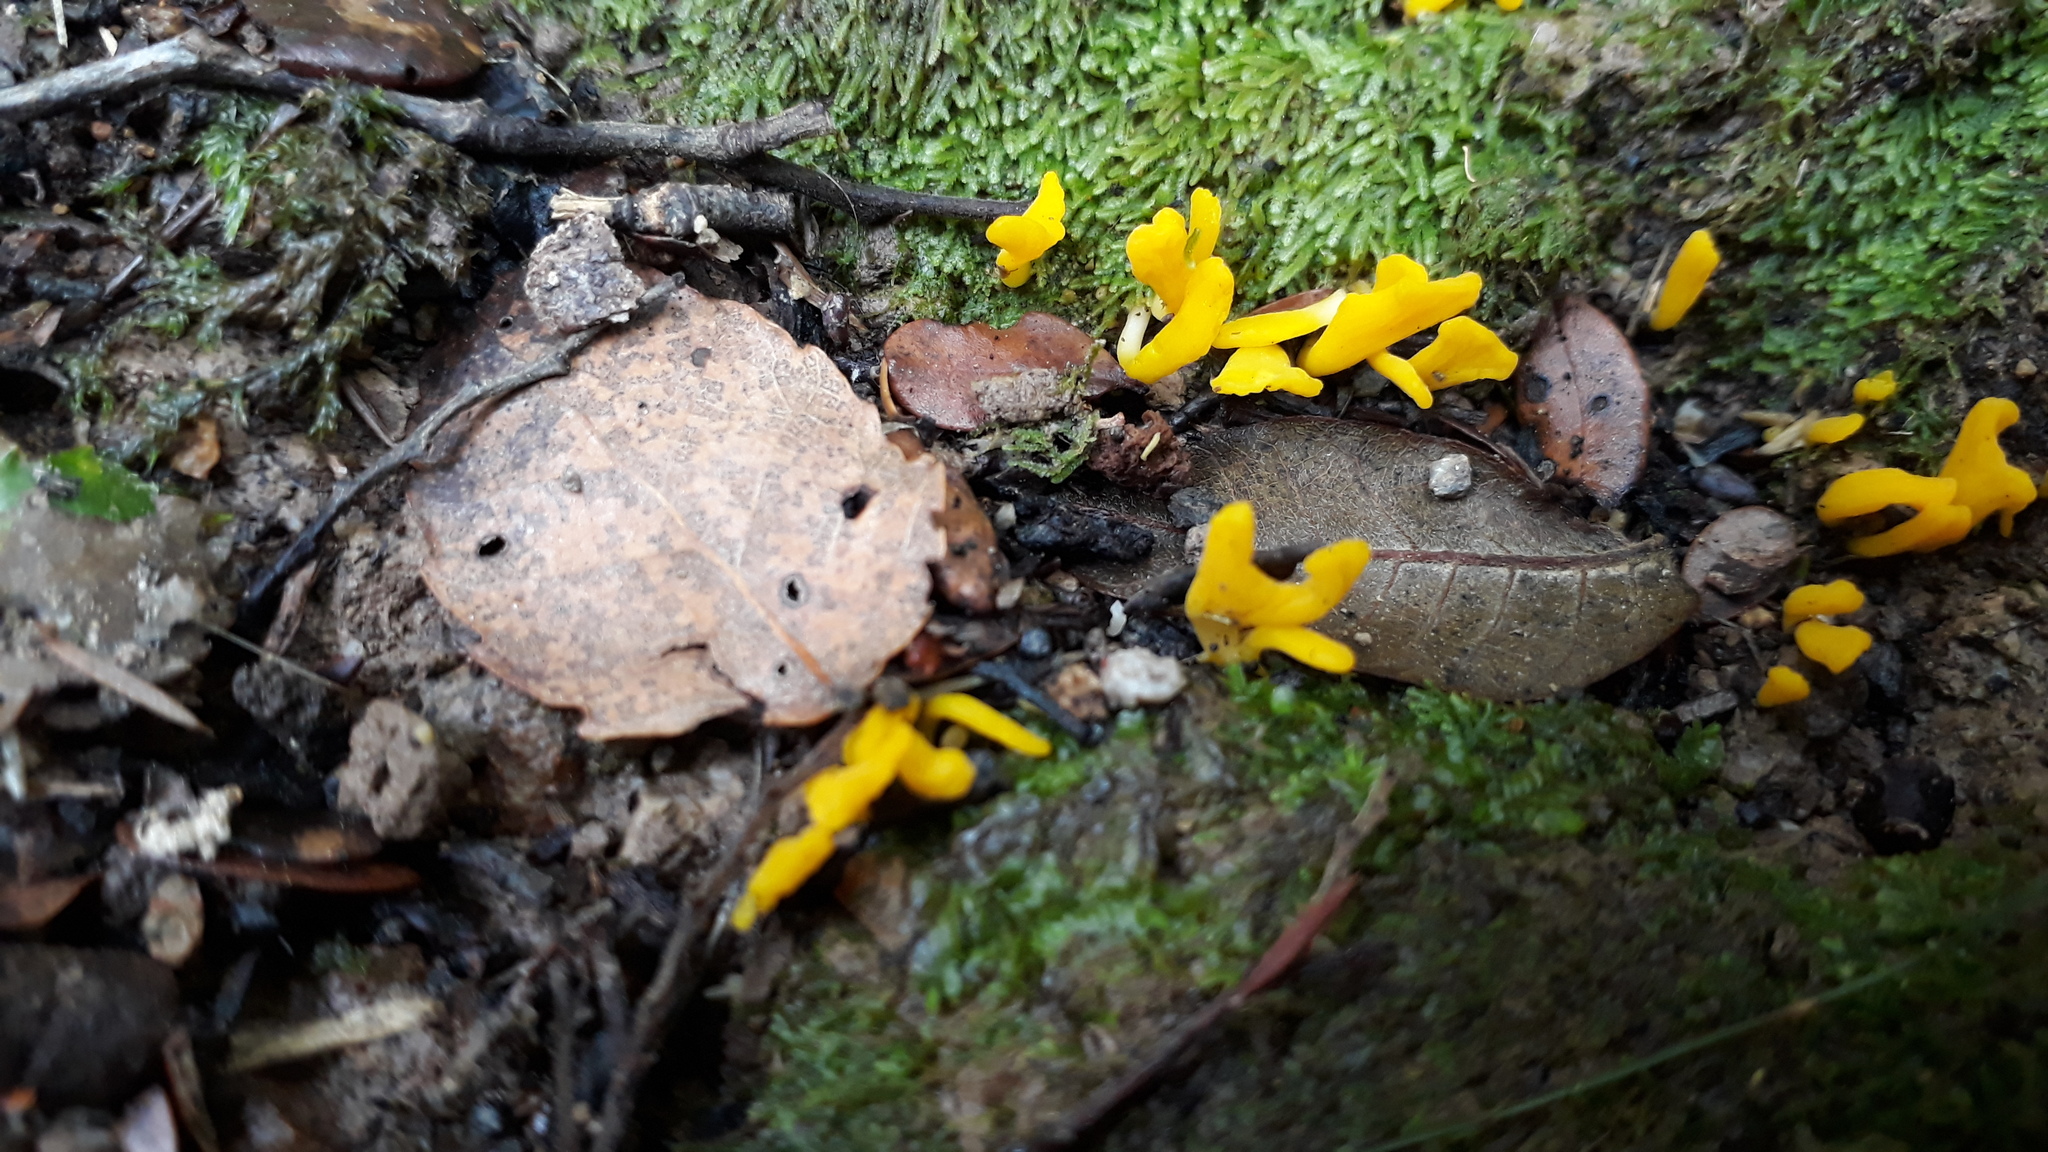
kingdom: Fungi
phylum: Basidiomycota
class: Agaricomycetes
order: Agaricales
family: Clavariaceae
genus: Clavulinopsis
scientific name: Clavulinopsis archeri
